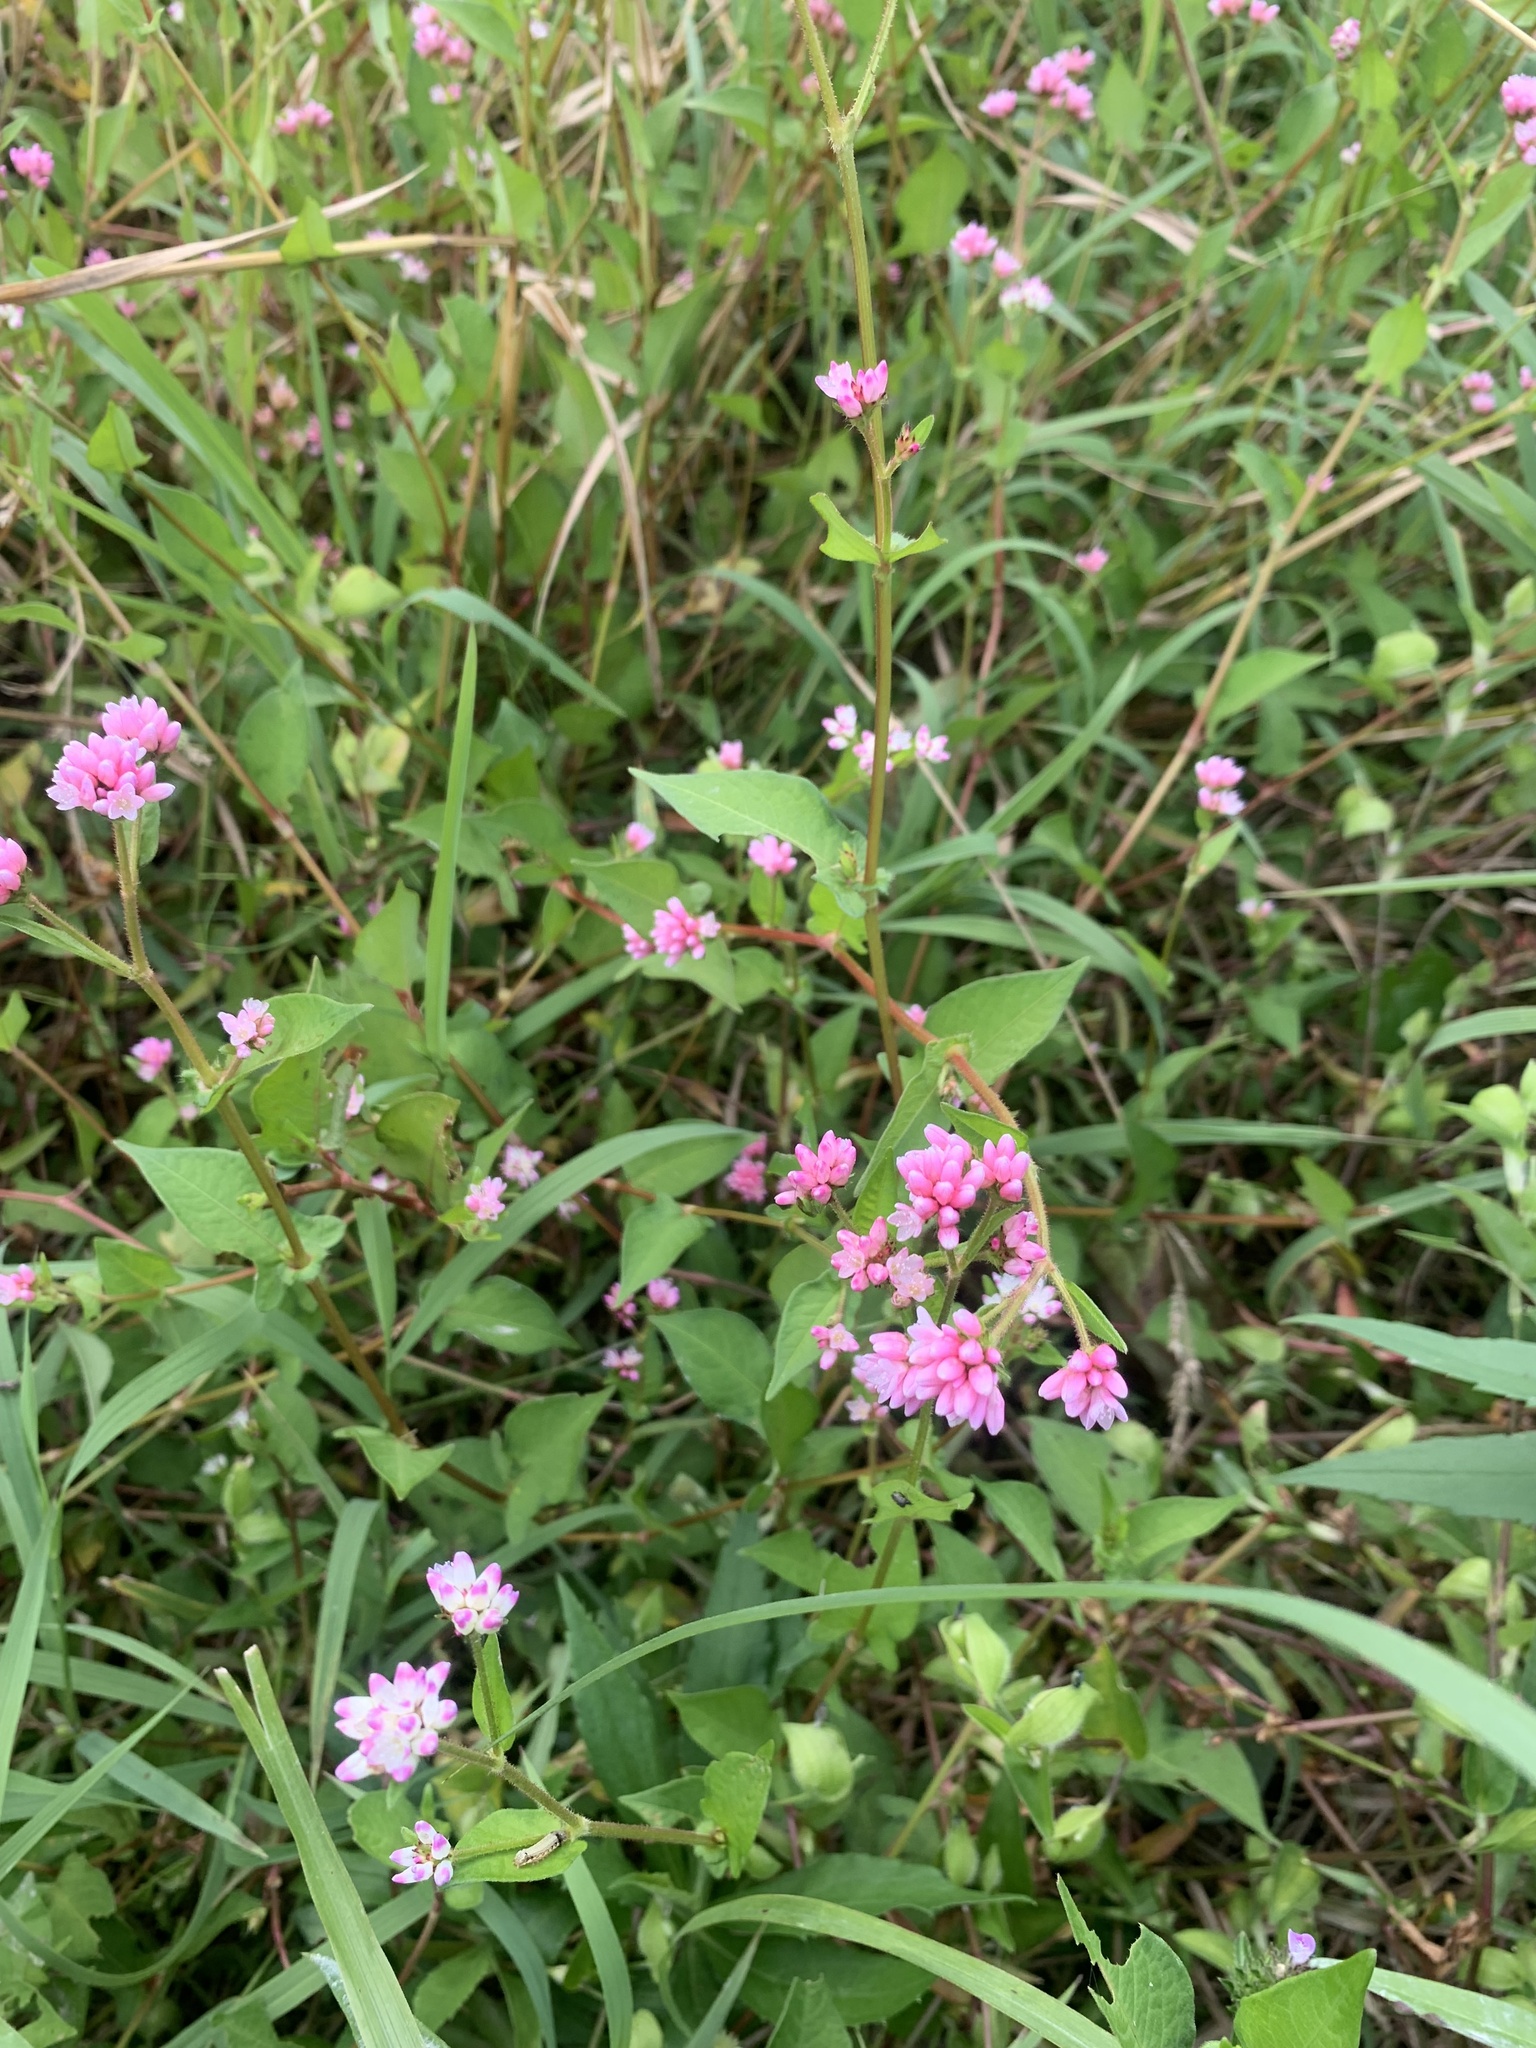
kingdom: Plantae
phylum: Tracheophyta
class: Magnoliopsida
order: Caryophyllales
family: Polygonaceae
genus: Persicaria
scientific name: Persicaria thunbergii
